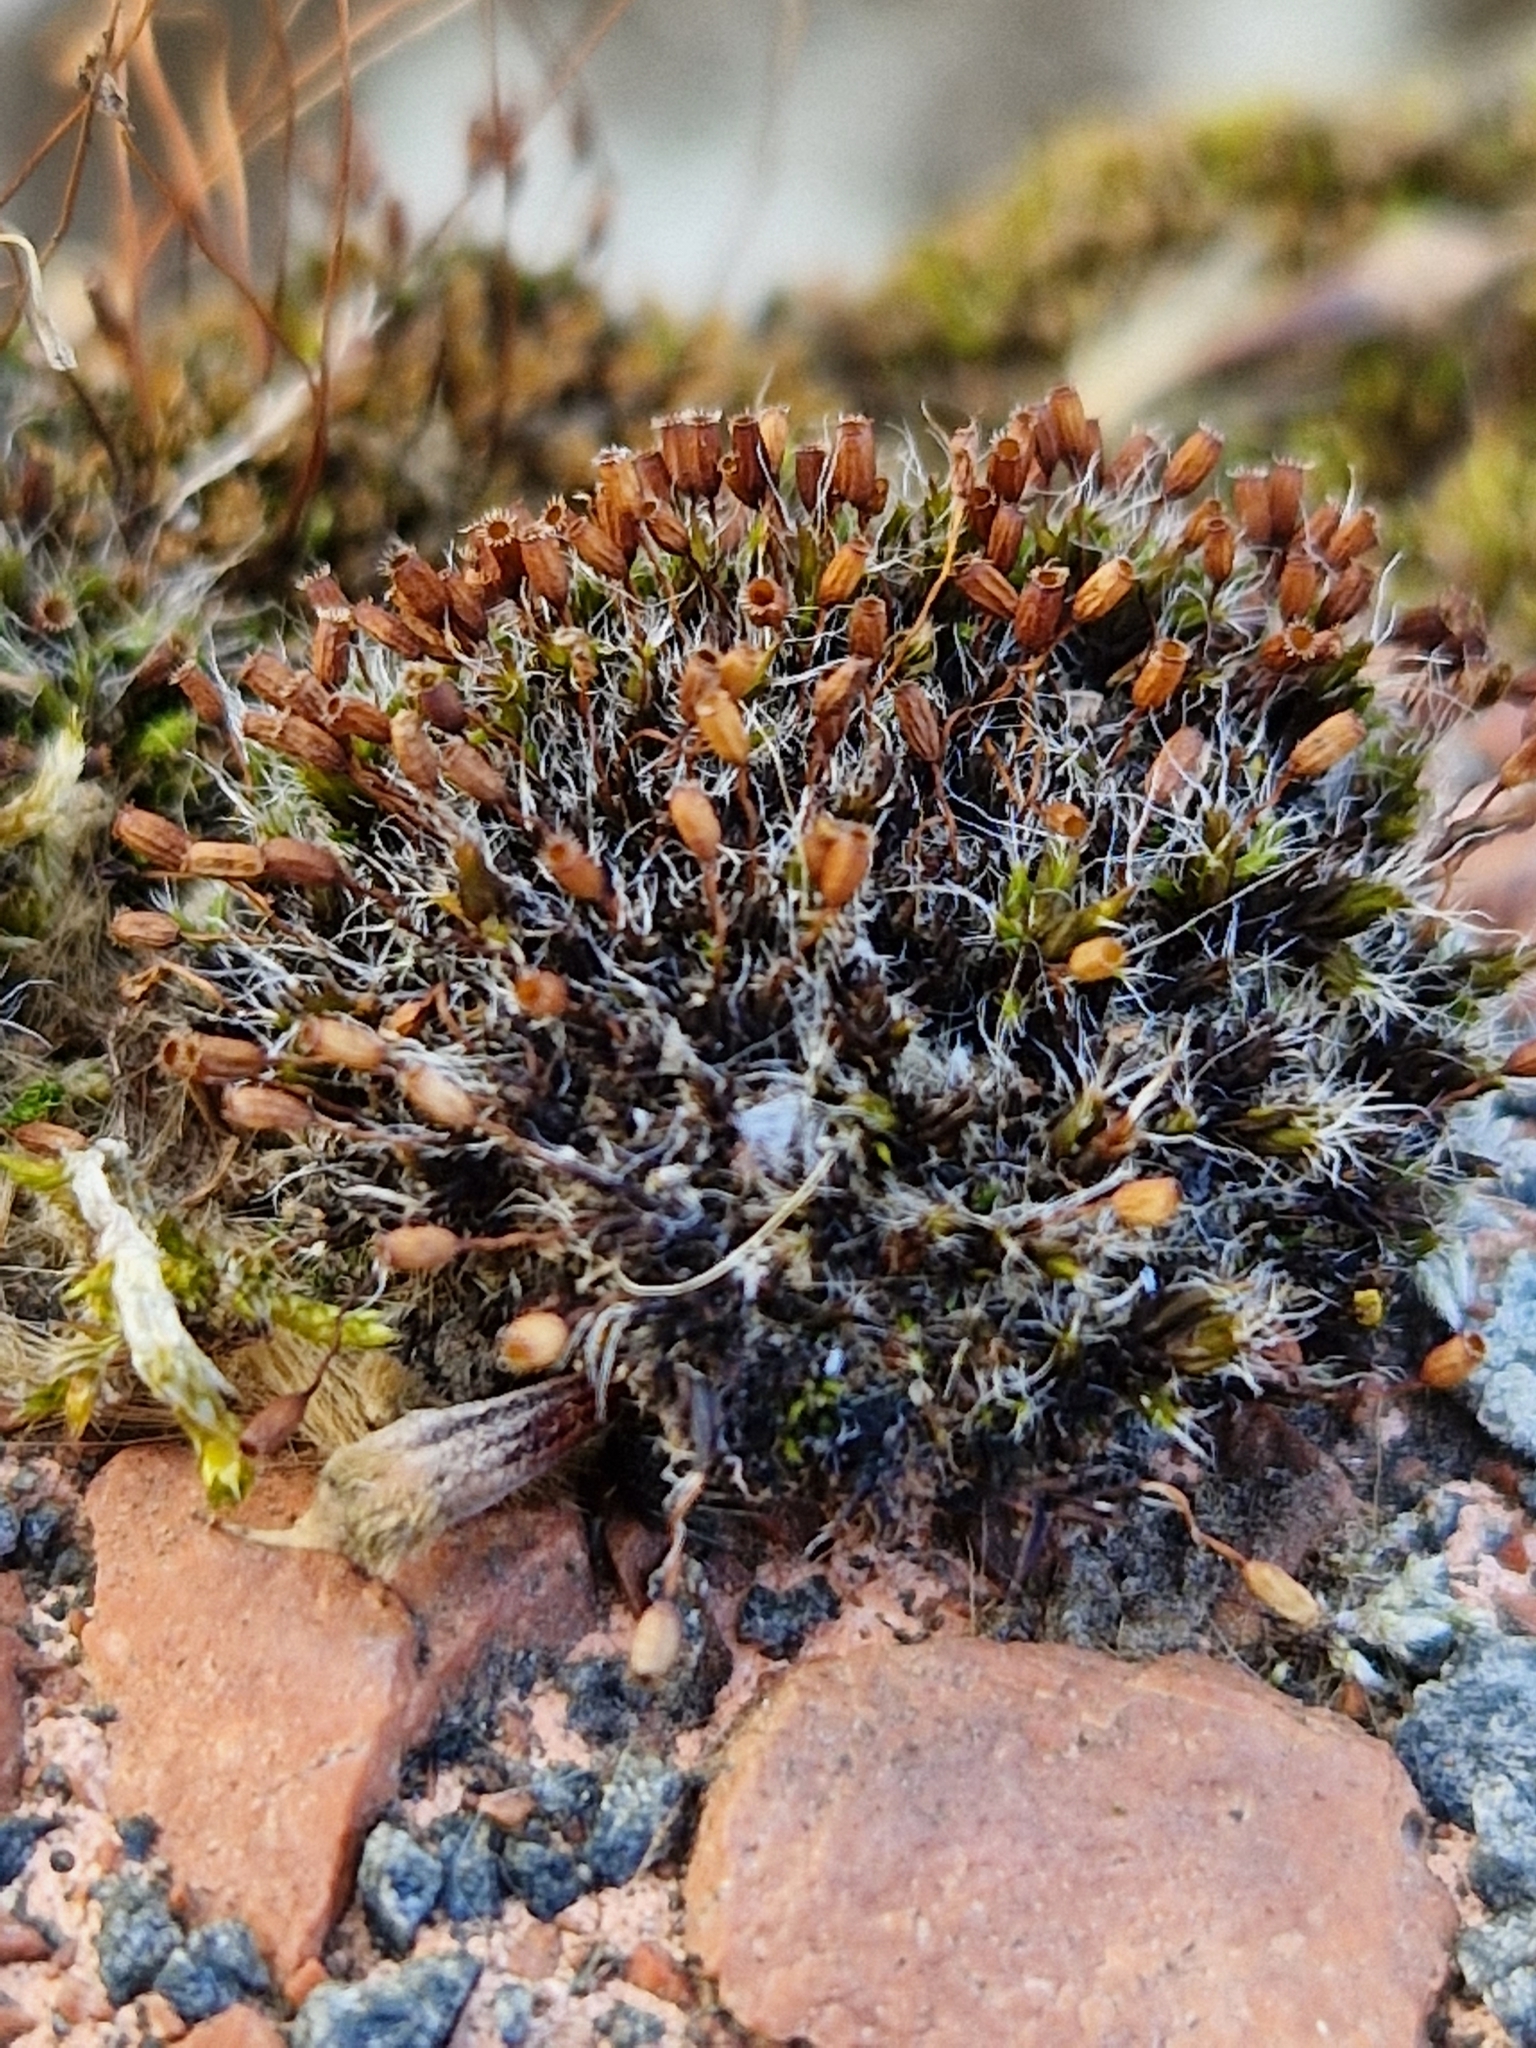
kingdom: Plantae
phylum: Bryophyta
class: Bryopsida
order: Grimmiales
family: Grimmiaceae
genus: Grimmia
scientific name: Grimmia pulvinata
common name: Grey-cushioned grimmia
